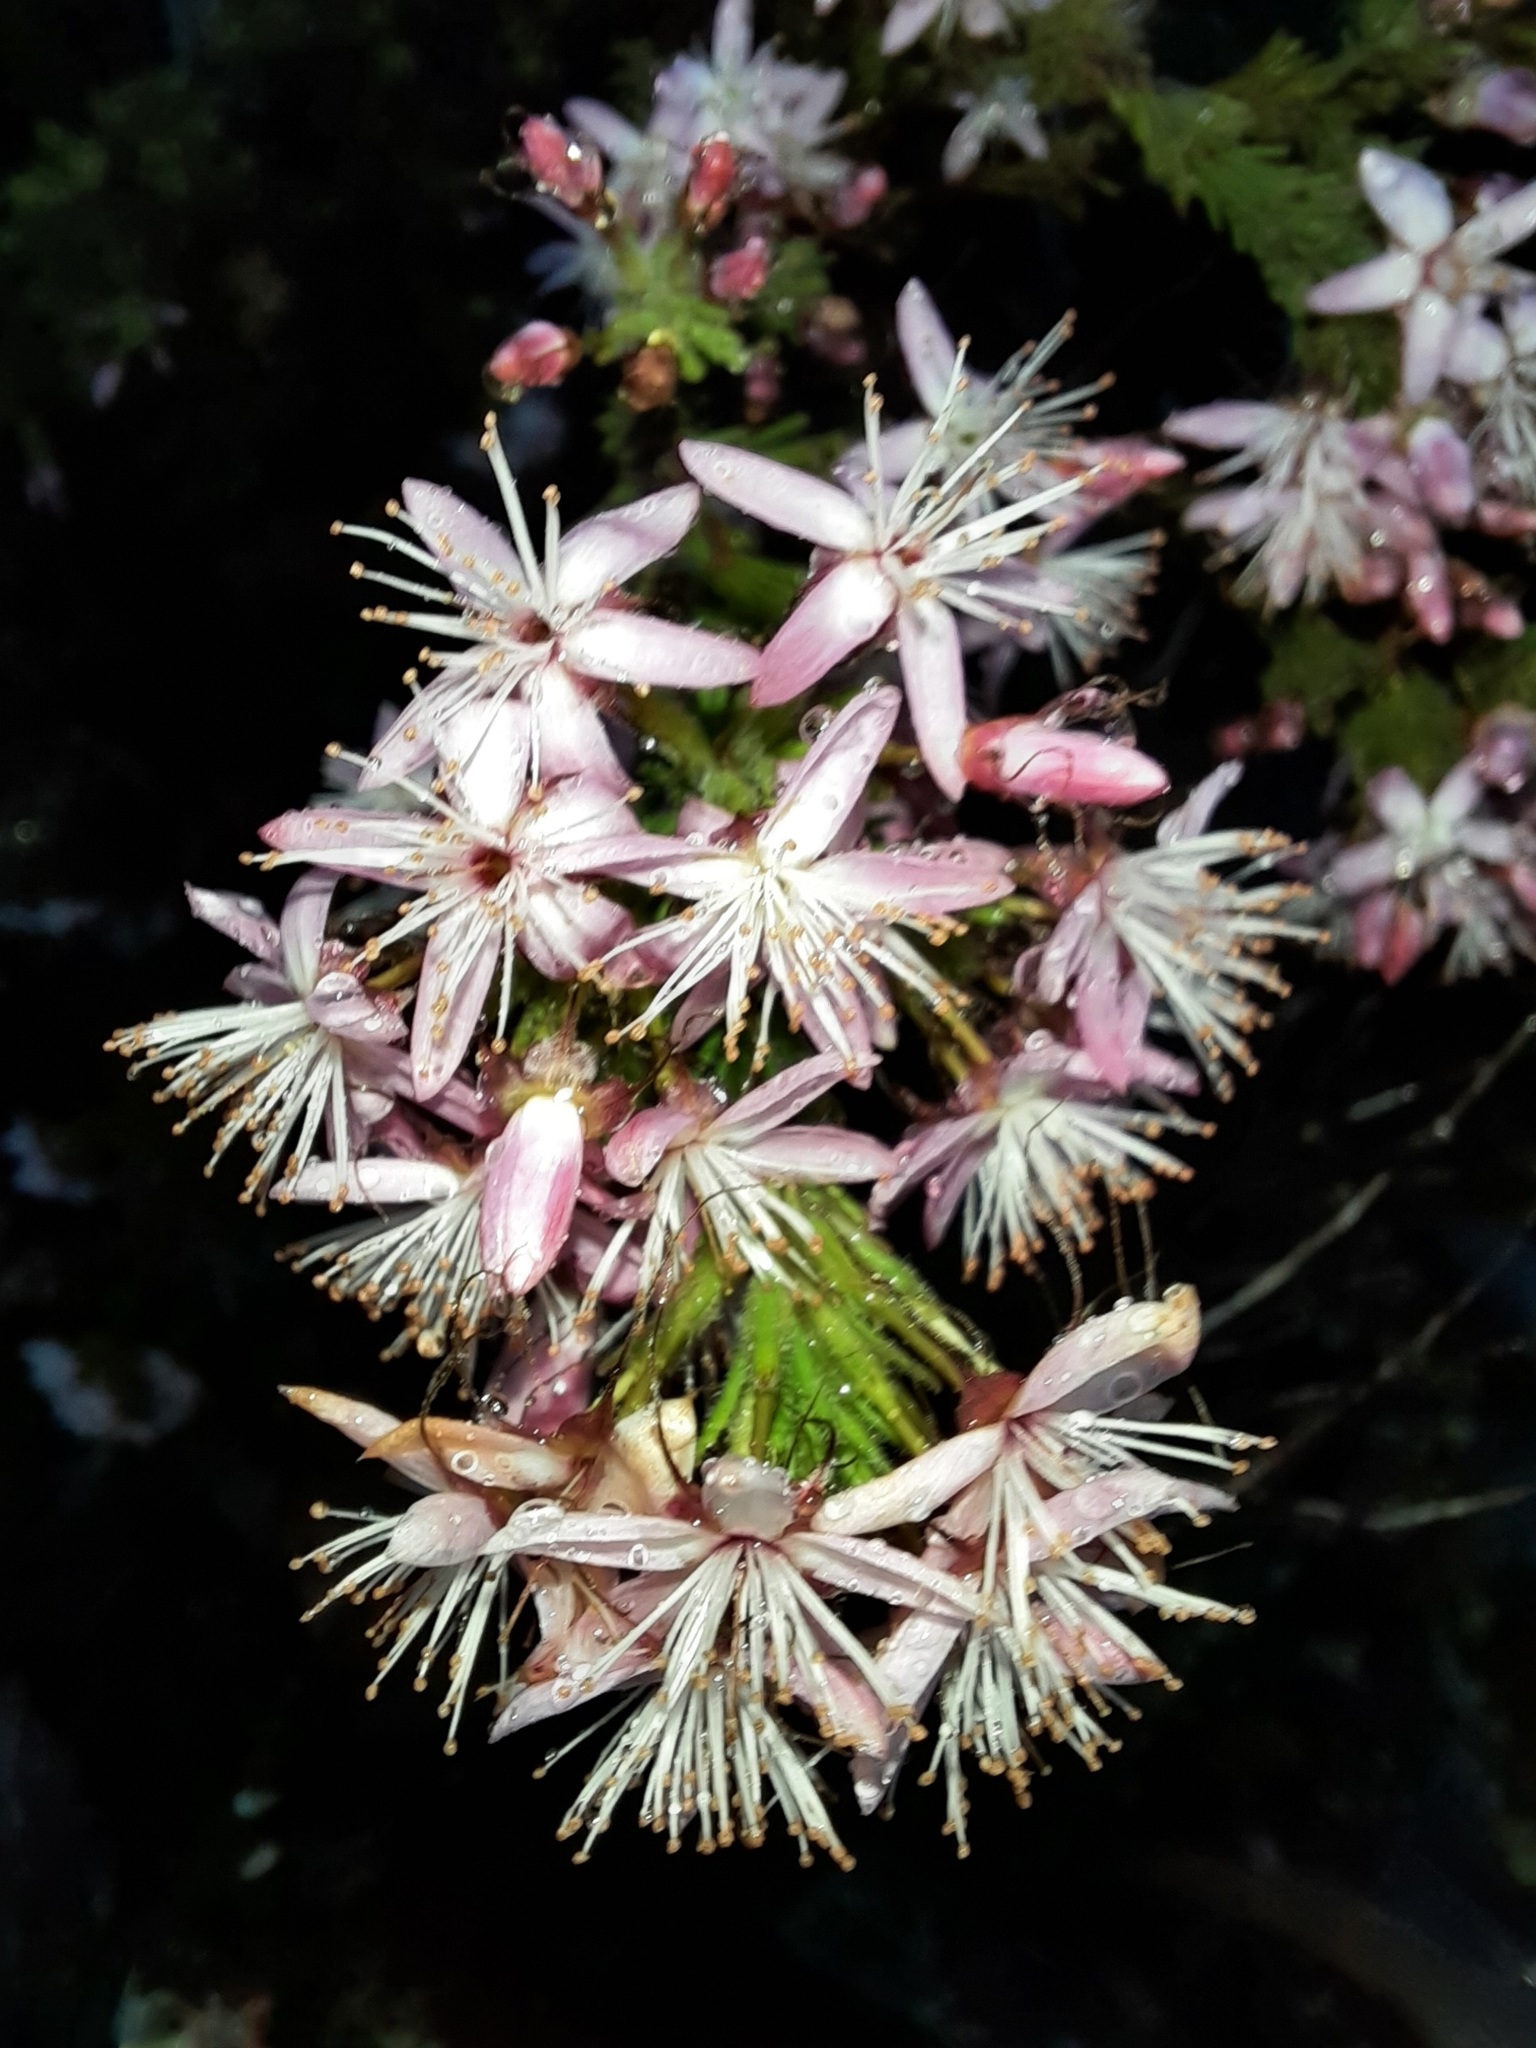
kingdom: Plantae
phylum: Tracheophyta
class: Magnoliopsida
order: Myrtales
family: Myrtaceae
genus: Calytrix
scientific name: Calytrix tetragona
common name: Common fringe myrtle
